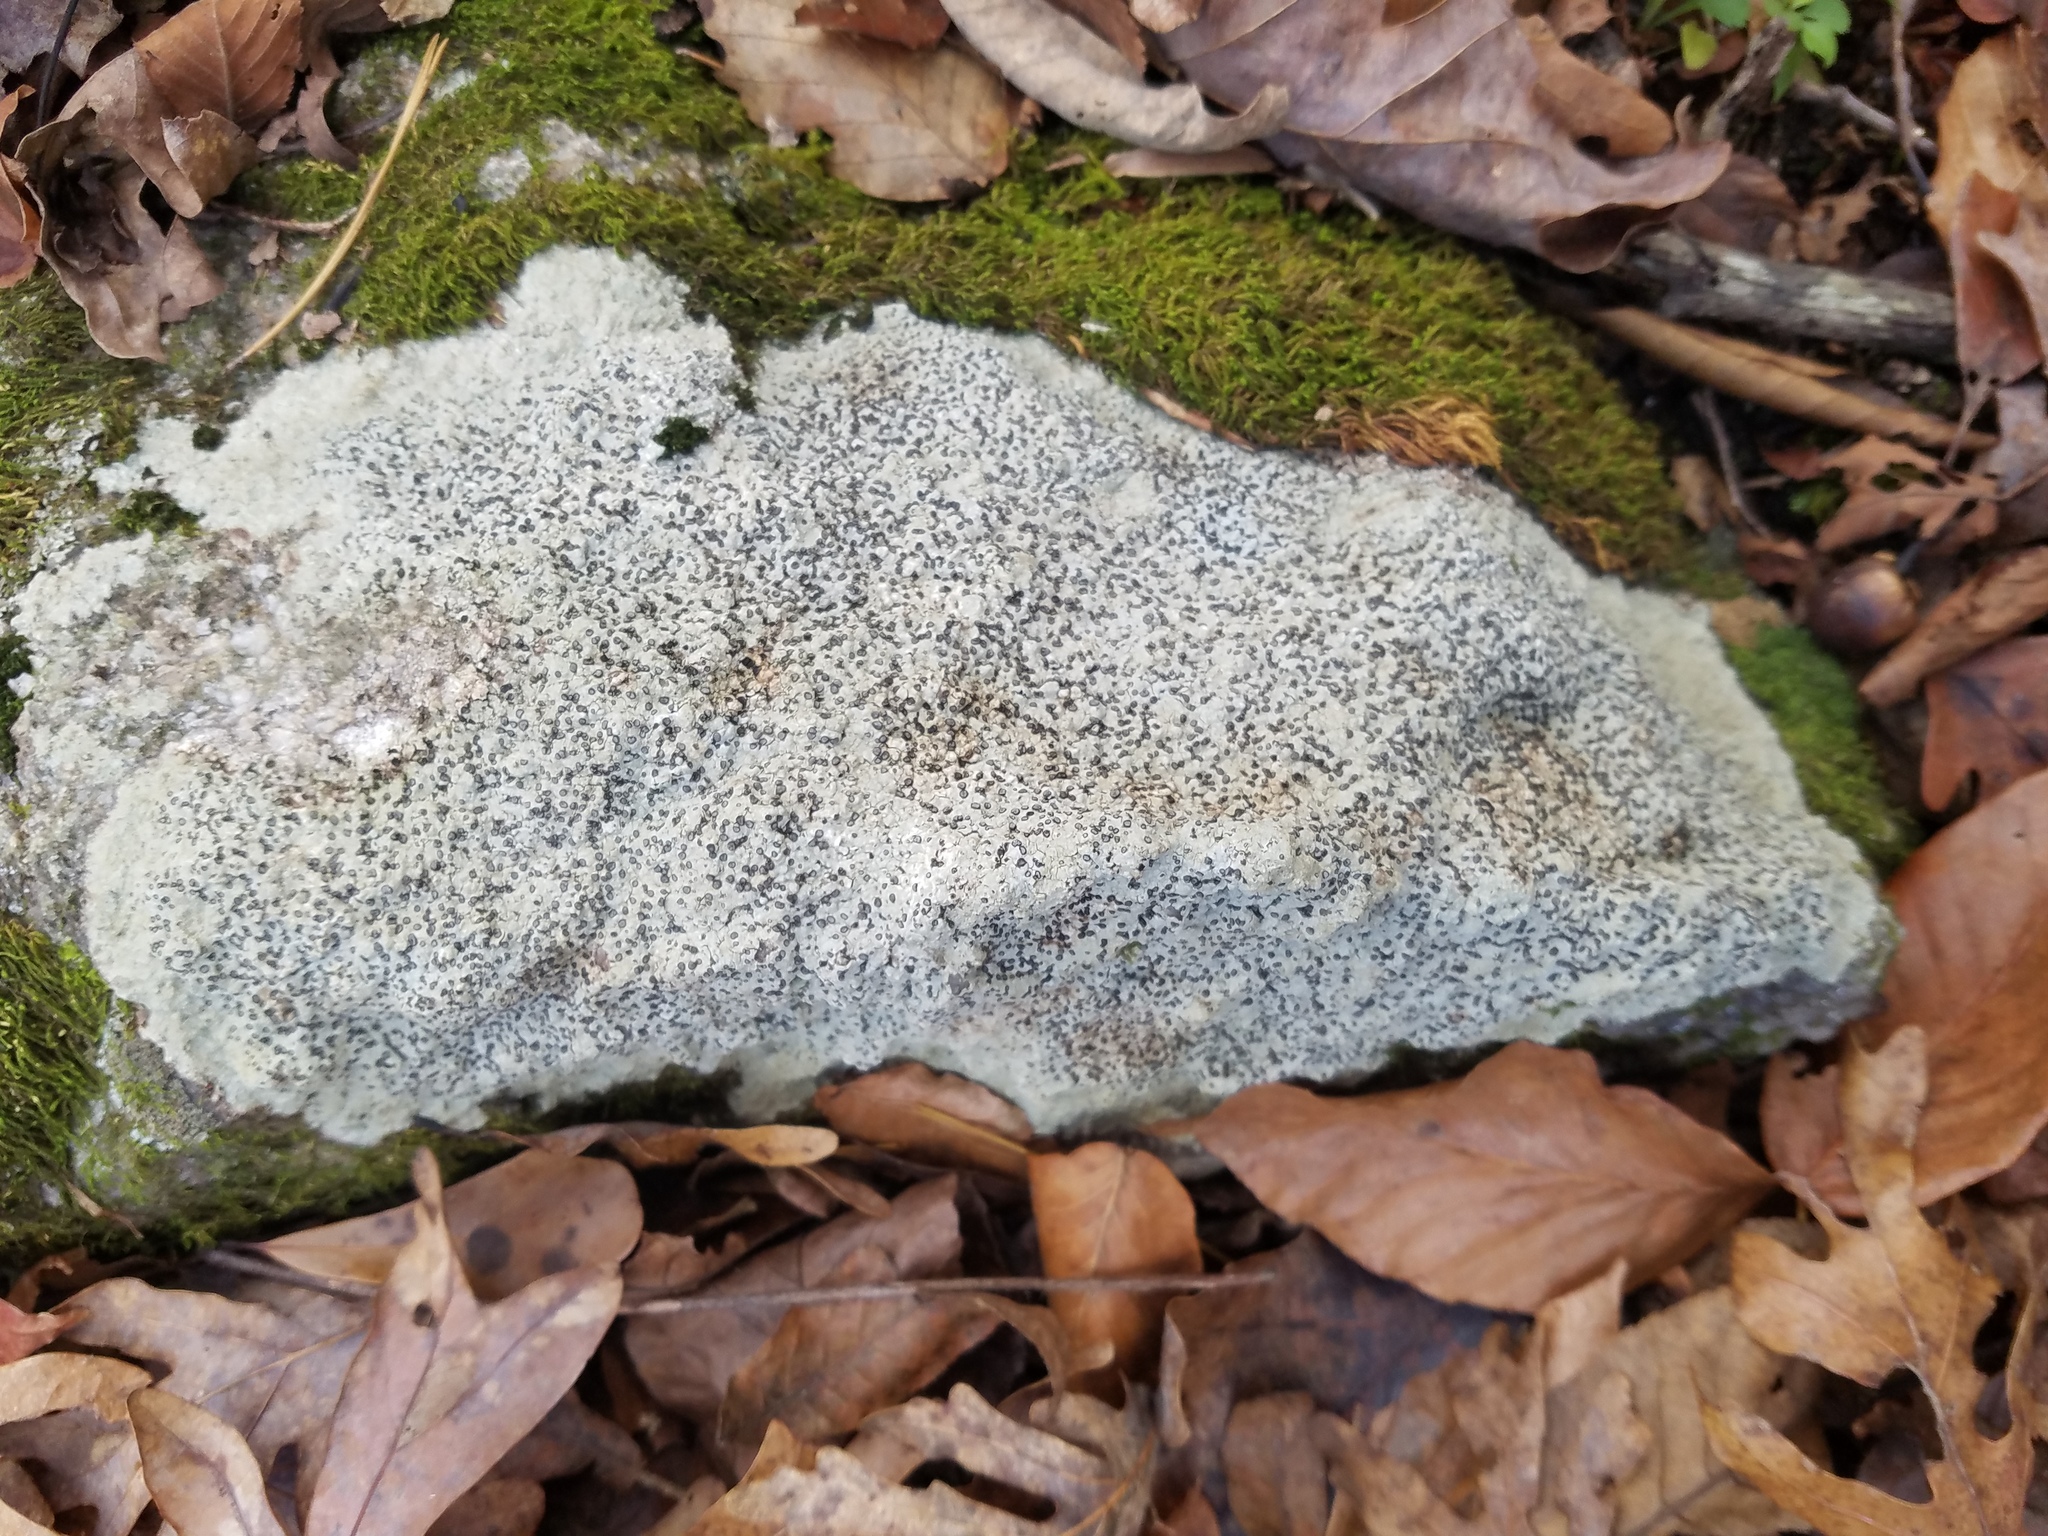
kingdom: Fungi
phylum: Ascomycota
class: Lecanoromycetes
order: Lecideales
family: Lecideaceae
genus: Porpidia
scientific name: Porpidia albocaerulescens
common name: Smokey-eyed boulder lichen
